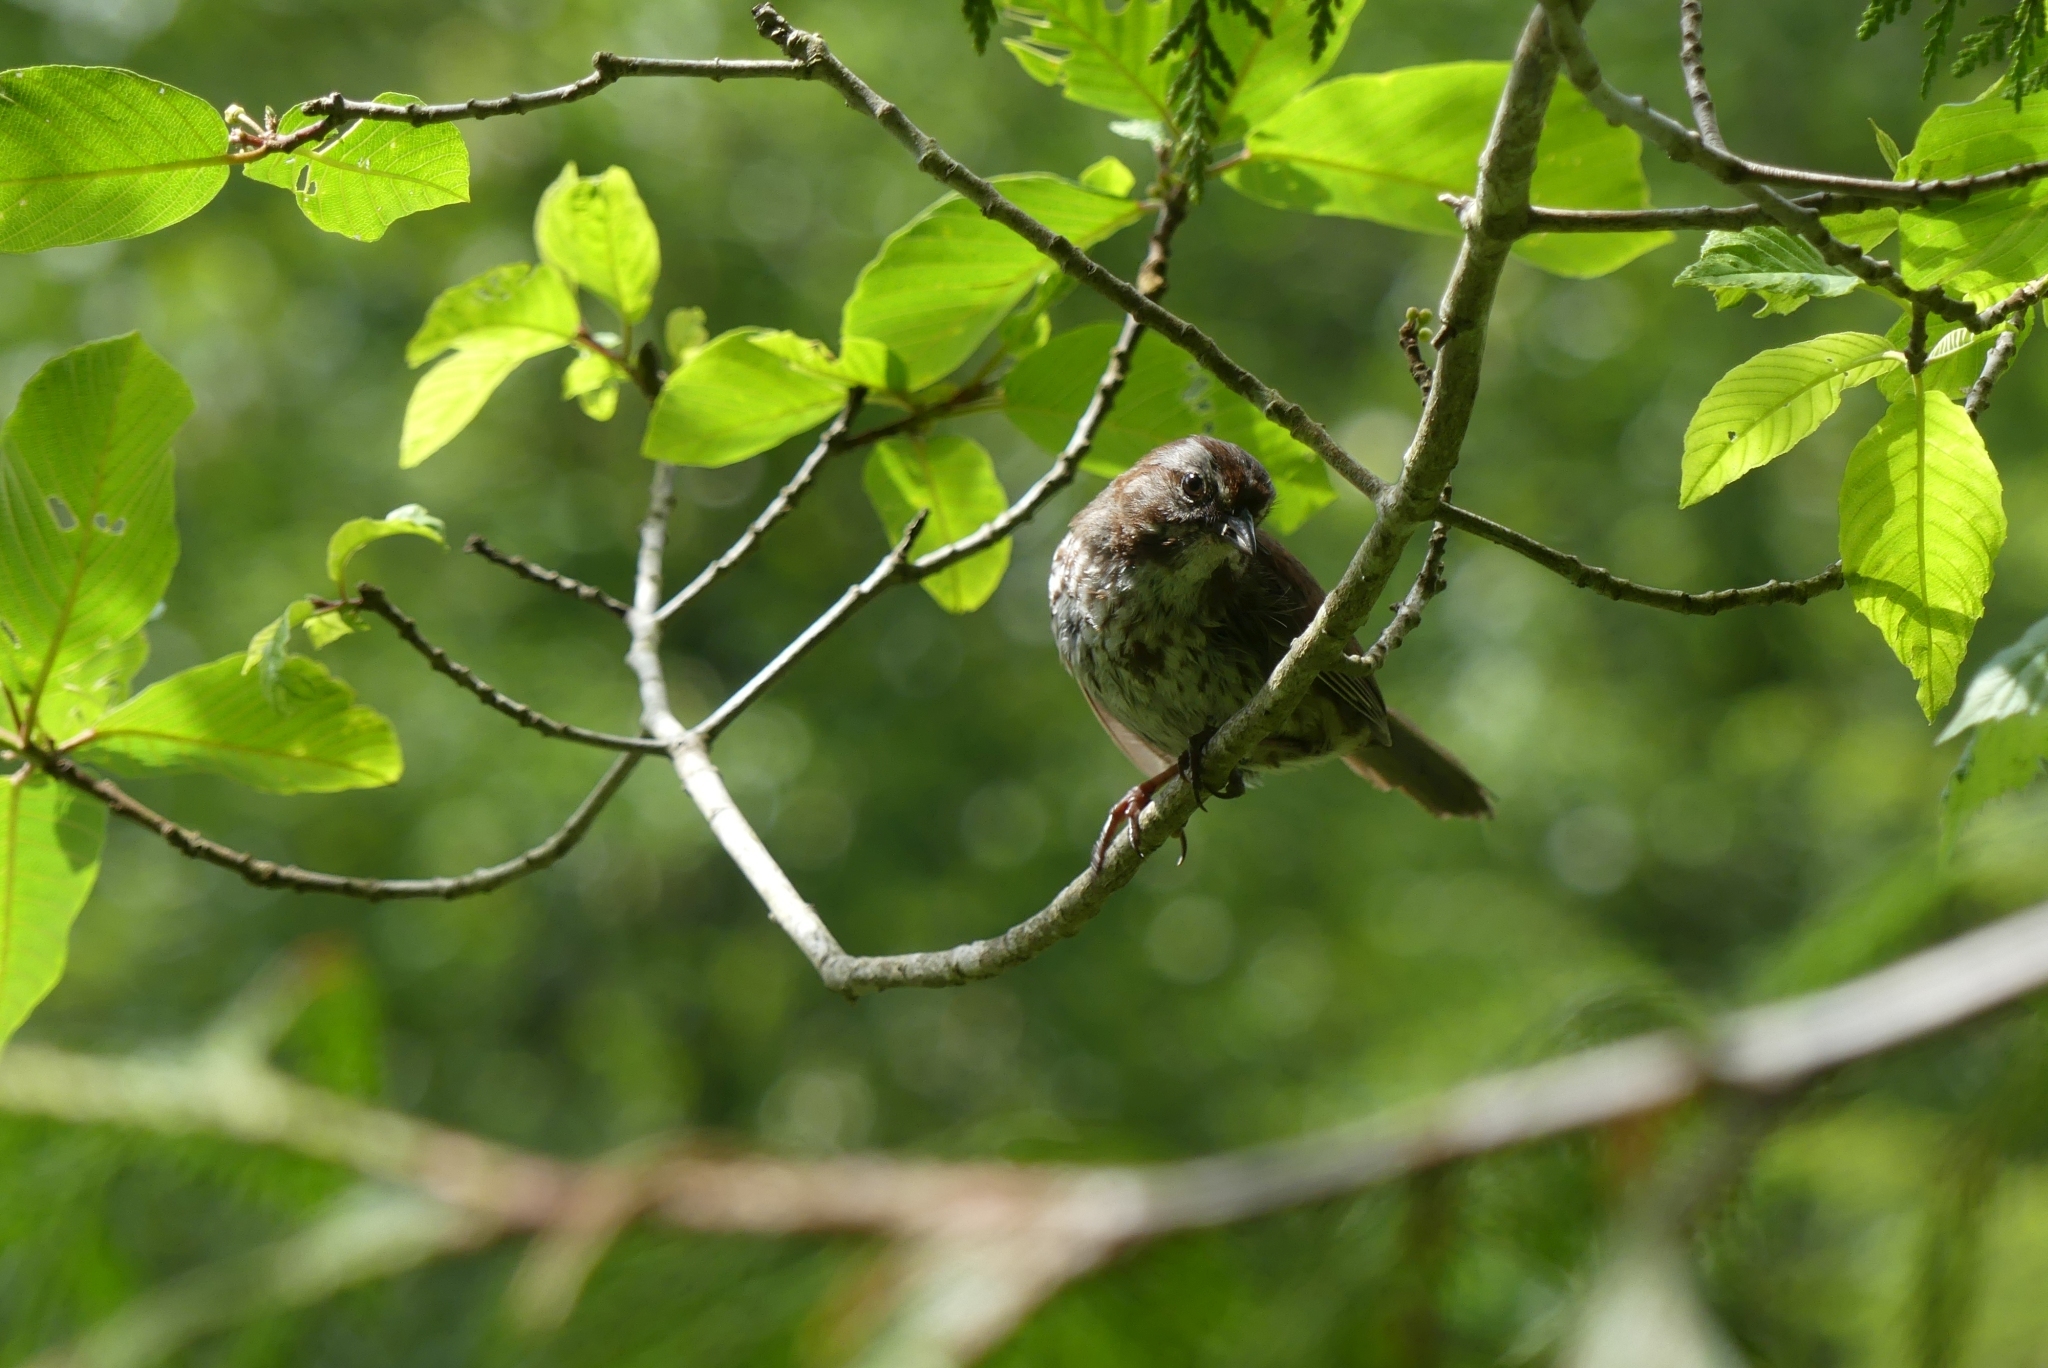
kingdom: Animalia
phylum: Chordata
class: Aves
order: Passeriformes
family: Passerellidae
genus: Melospiza
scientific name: Melospiza melodia
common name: Song sparrow
